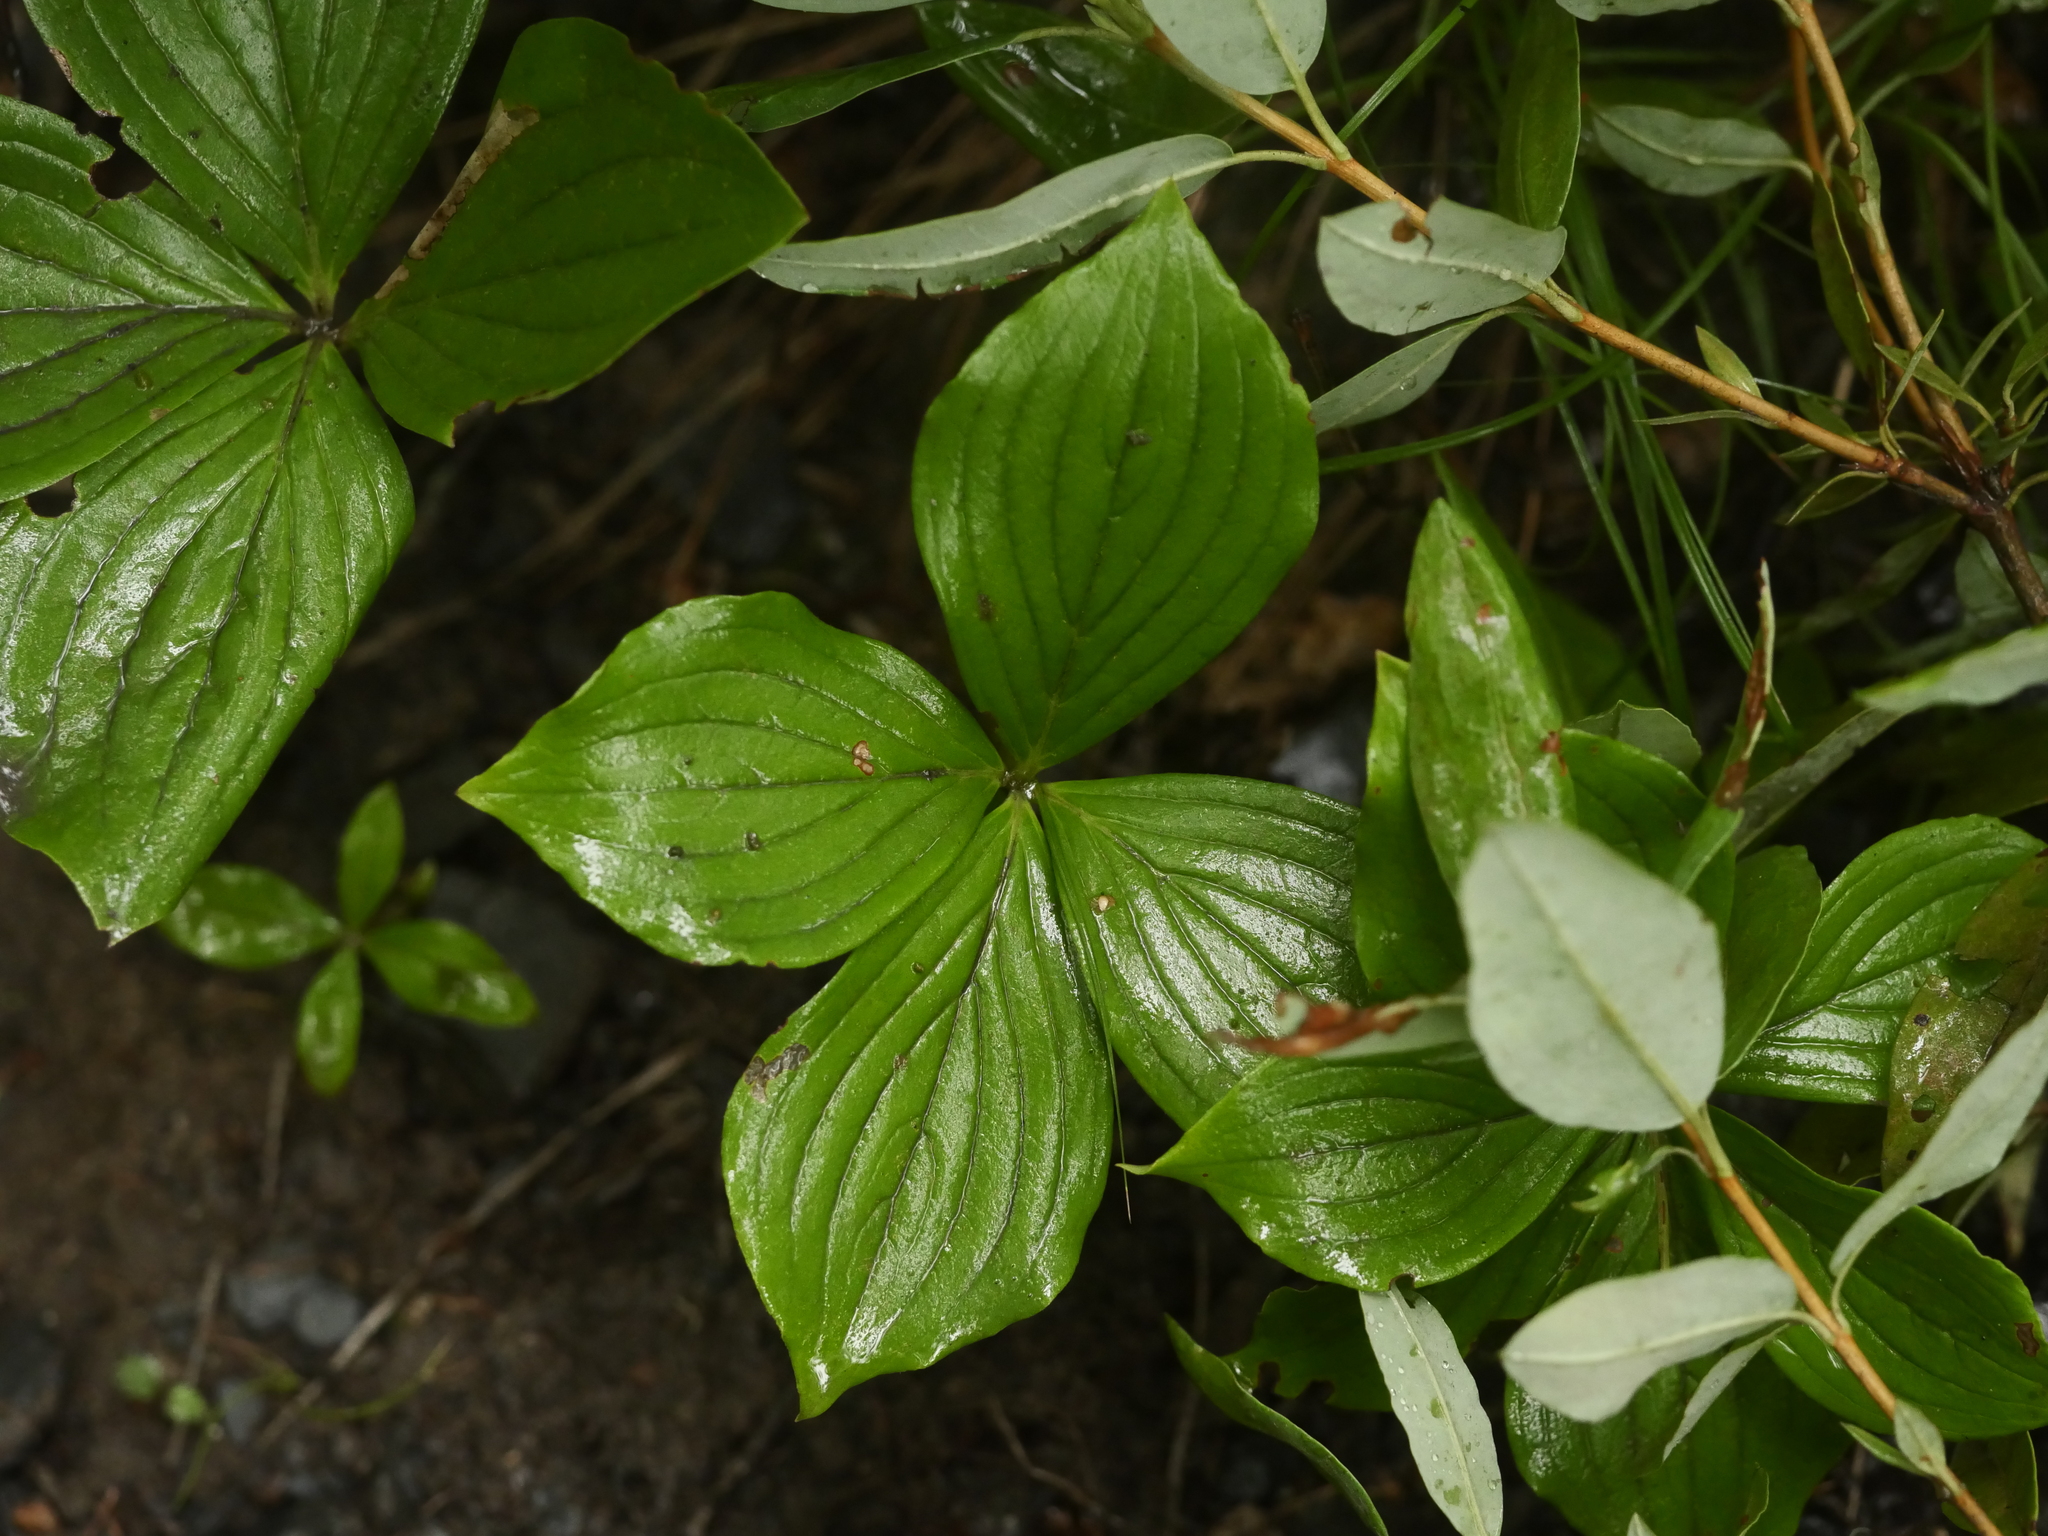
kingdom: Plantae
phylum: Tracheophyta
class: Magnoliopsida
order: Cornales
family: Cornaceae
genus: Cornus
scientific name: Cornus canadensis
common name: Creeping dogwood
